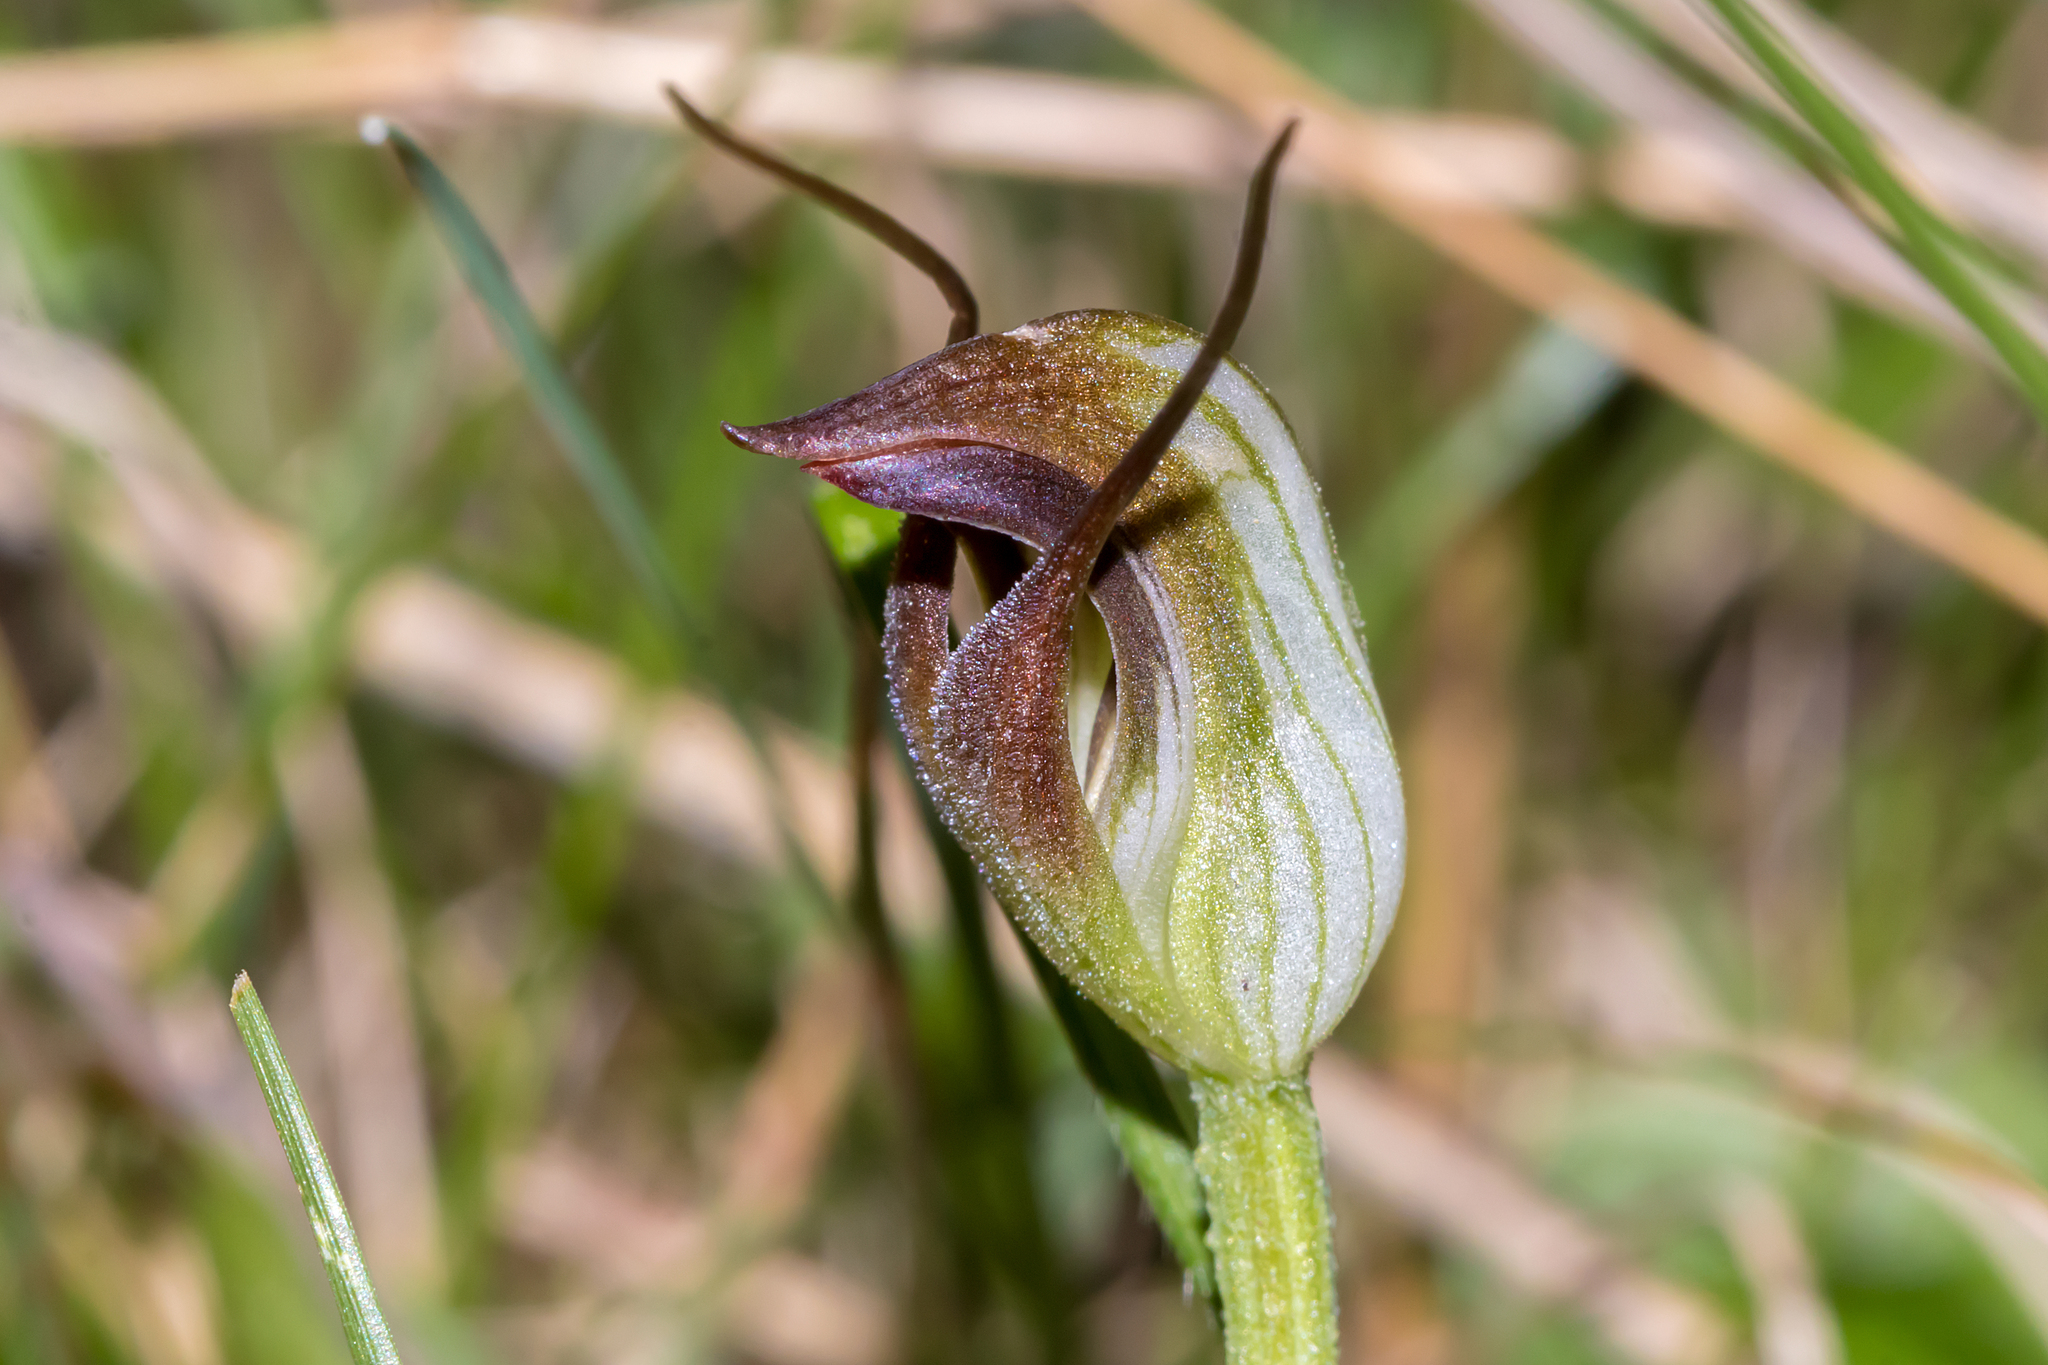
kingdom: Plantae
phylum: Tracheophyta
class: Liliopsida
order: Asparagales
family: Orchidaceae
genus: Pterostylis
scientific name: Pterostylis pedunculata
